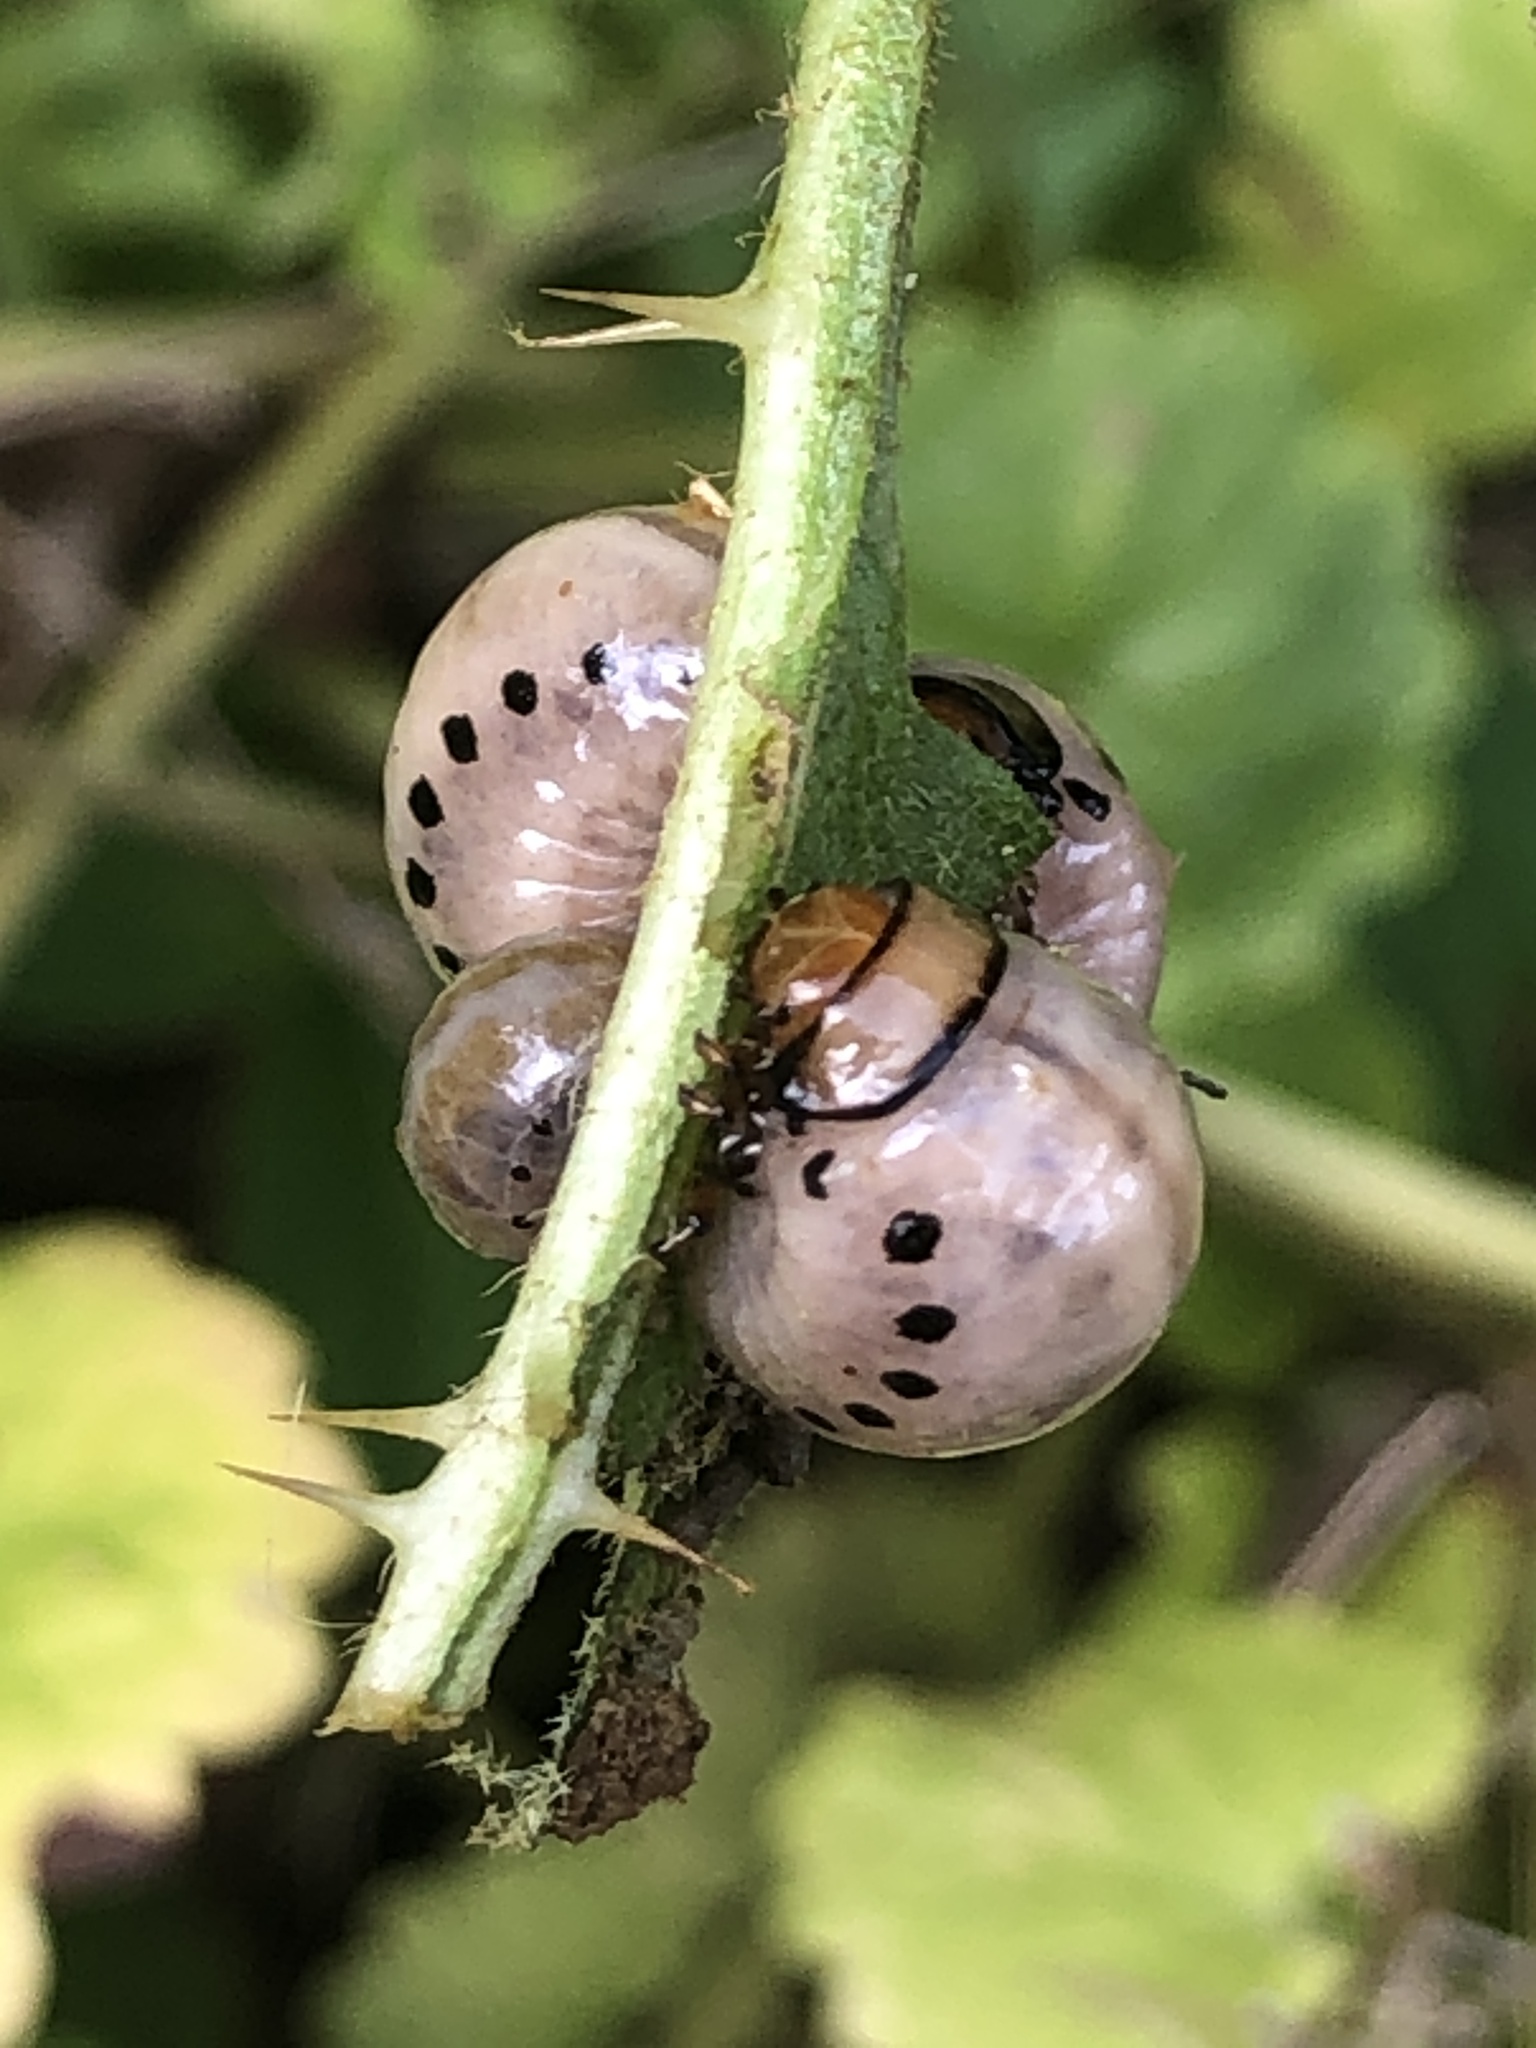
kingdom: Animalia
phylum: Arthropoda
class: Insecta
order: Coleoptera
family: Chrysomelidae
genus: Leptinotarsa
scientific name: Leptinotarsa juncta
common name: False potato beetle
